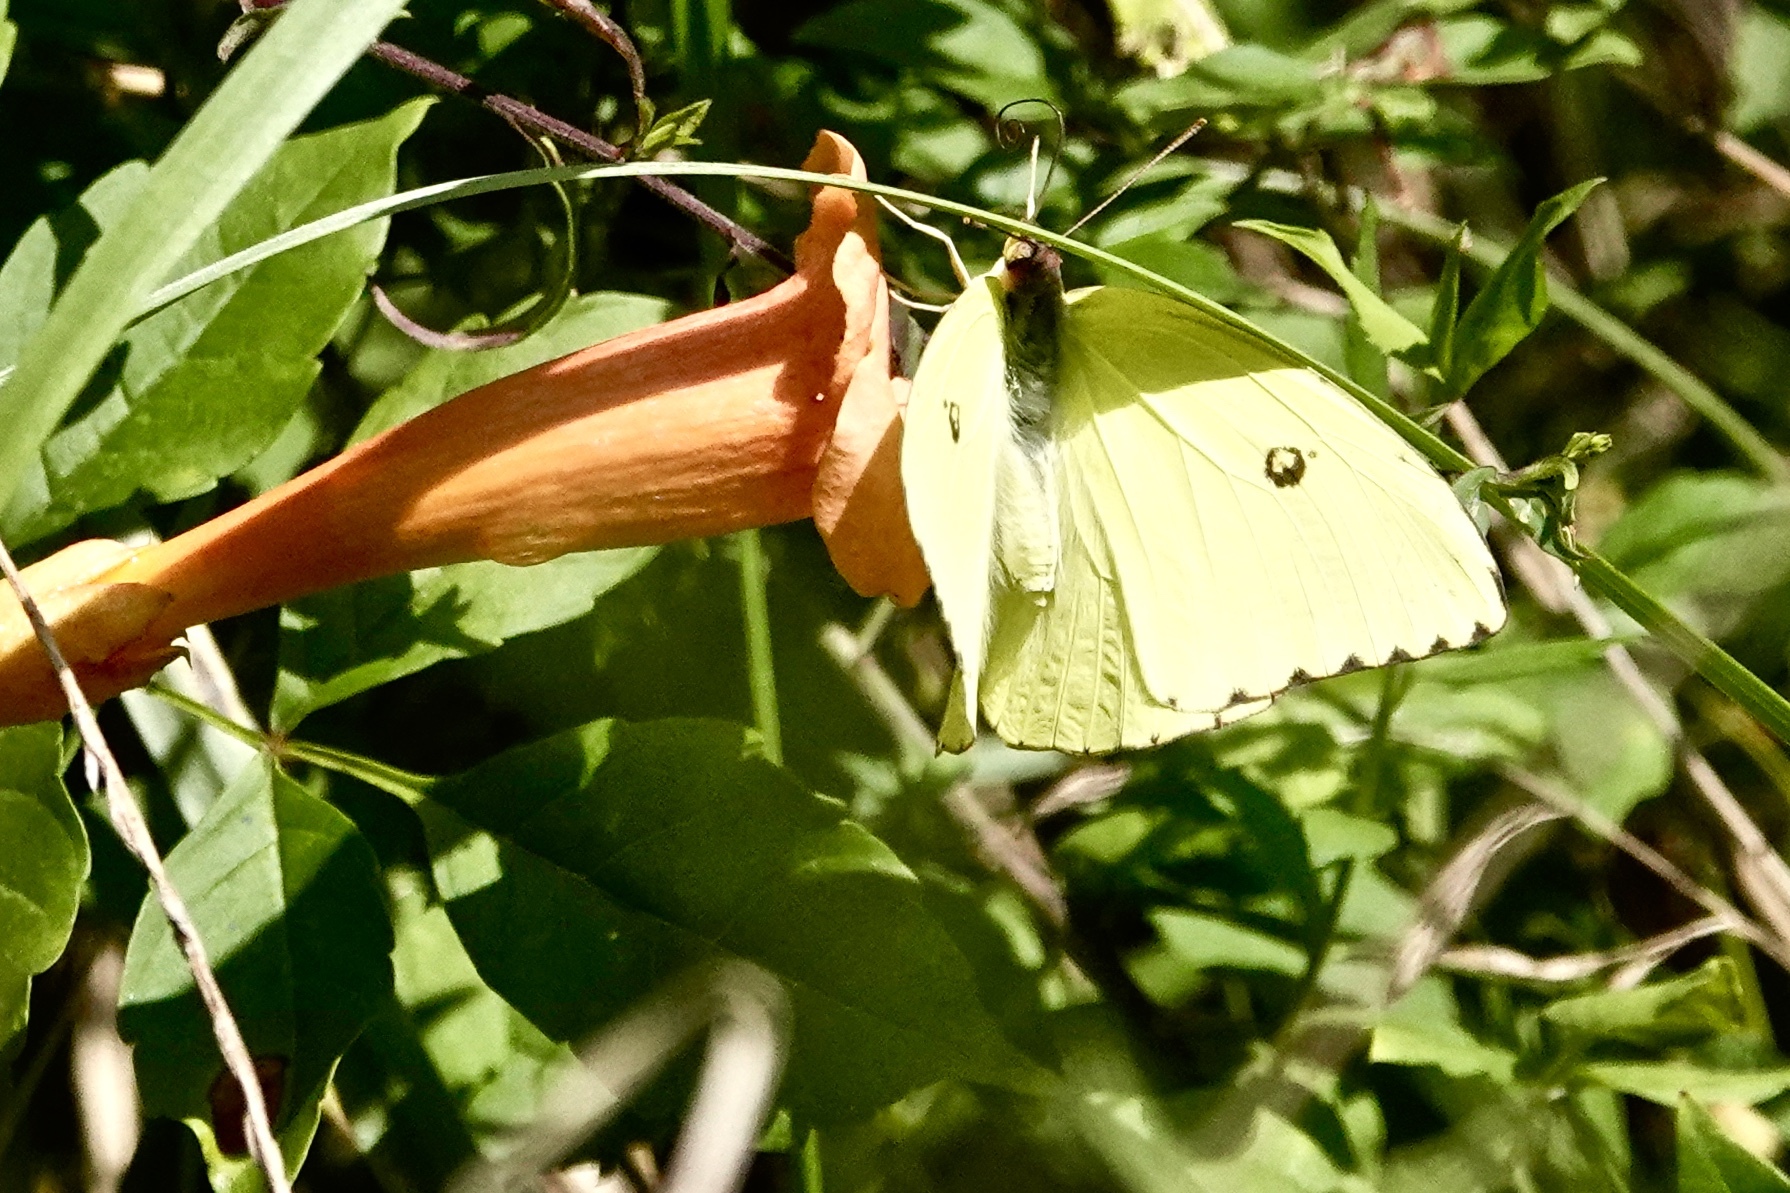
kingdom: Animalia
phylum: Arthropoda
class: Insecta
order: Lepidoptera
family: Pieridae
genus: Phoebis
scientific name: Phoebis sennae
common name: Cloudless sulphur
